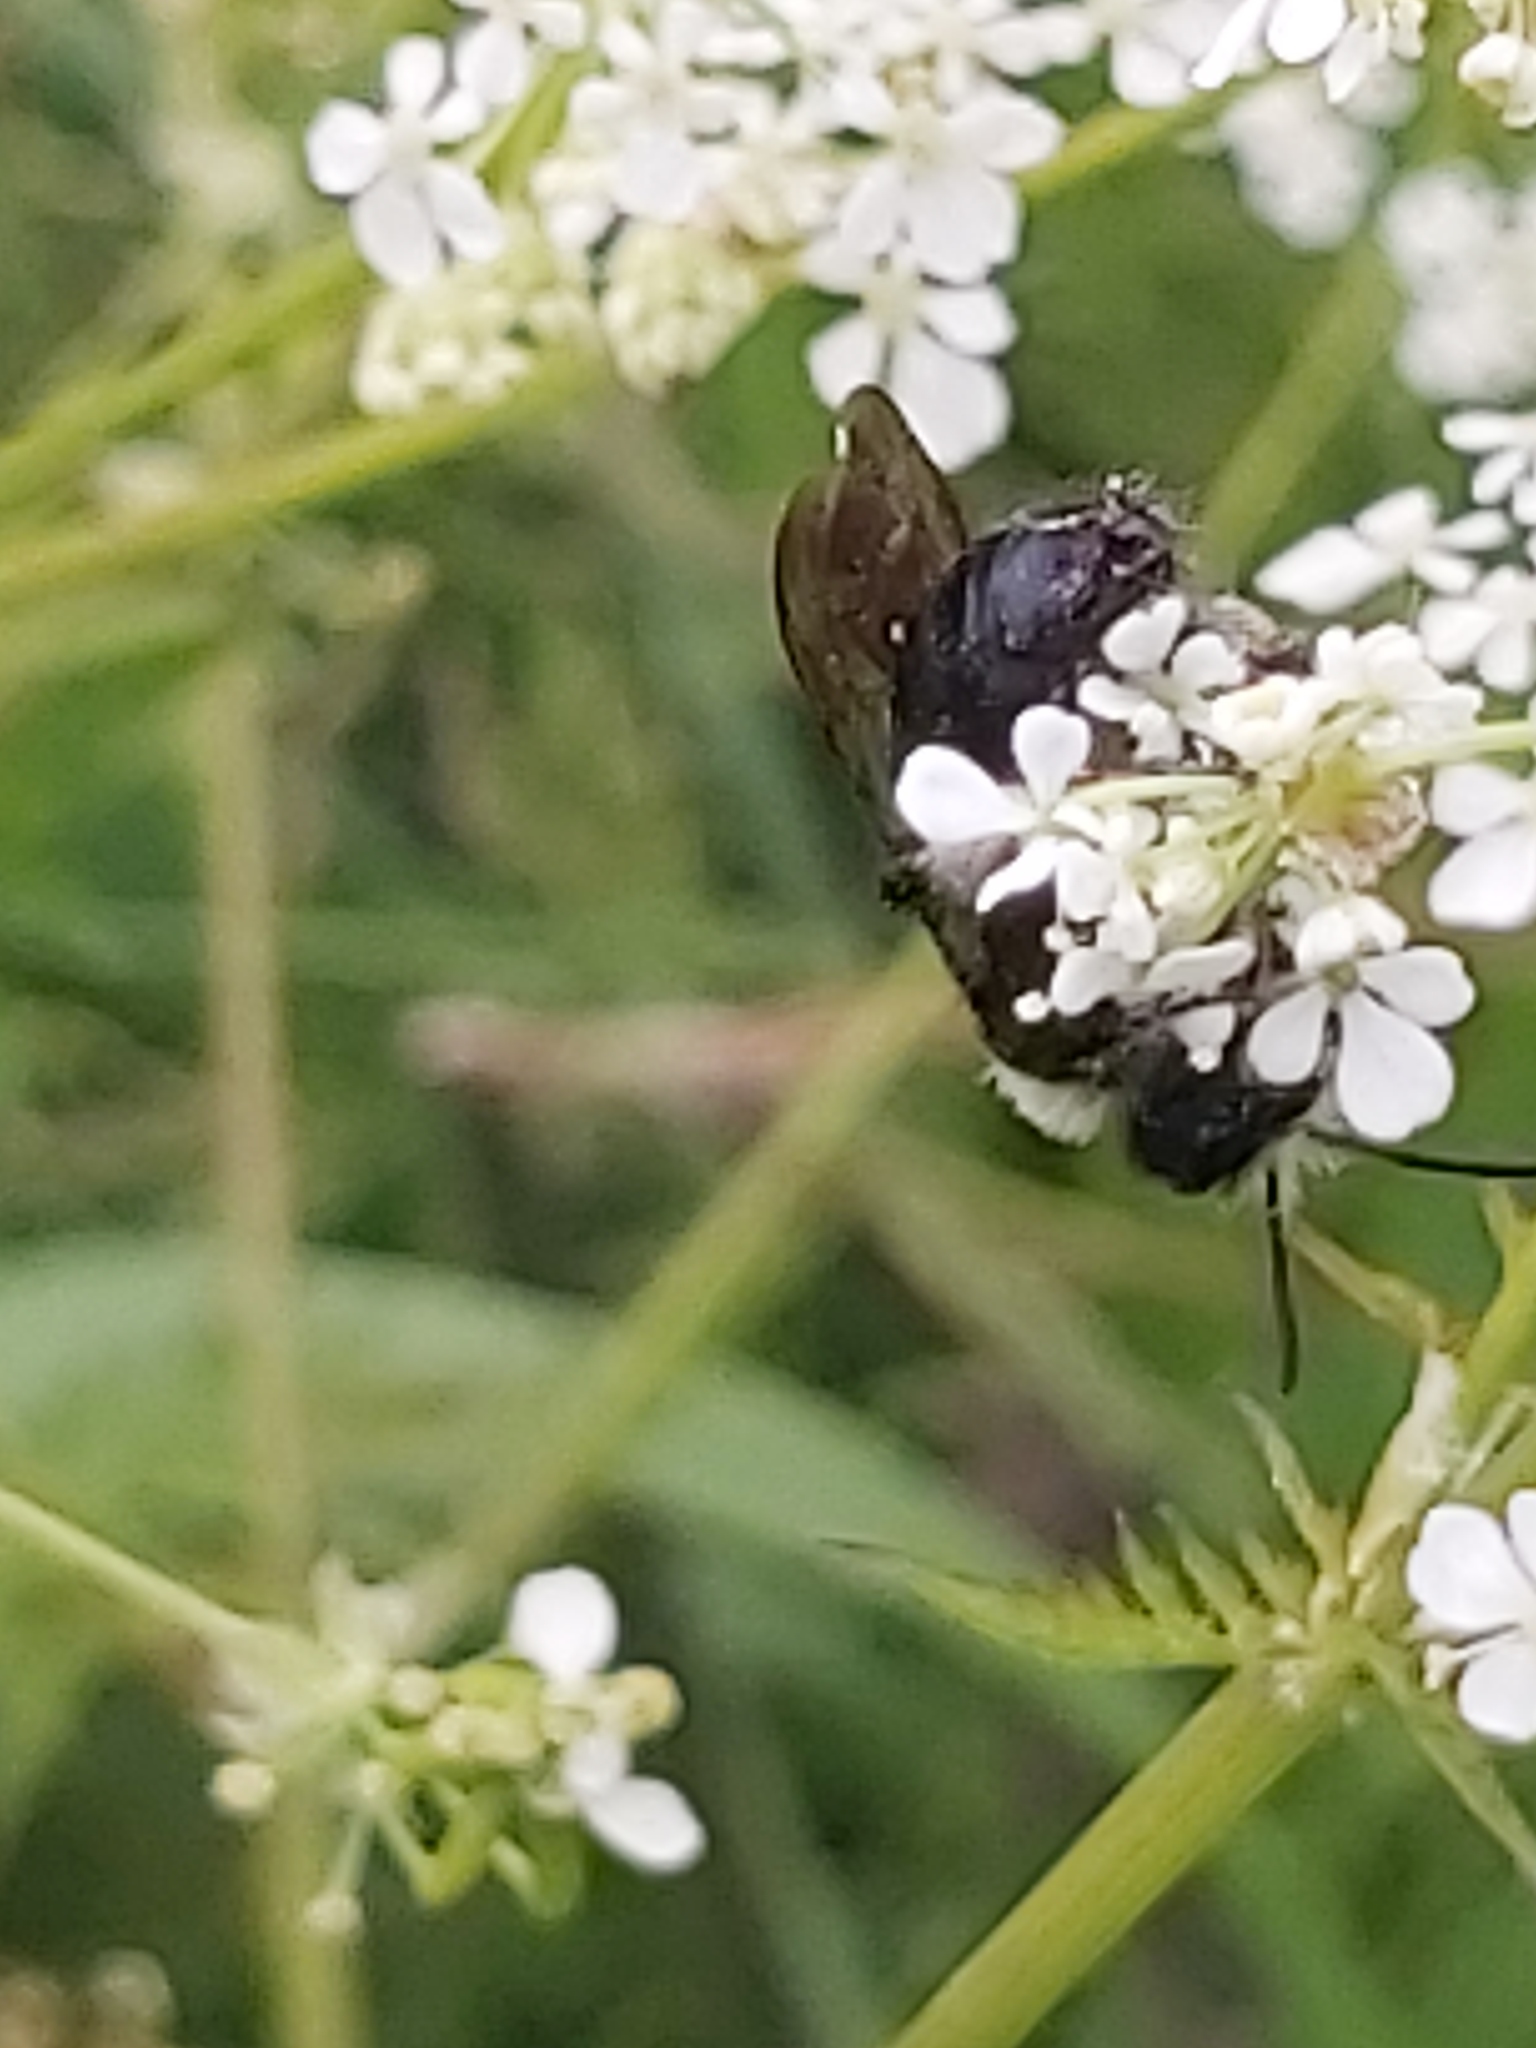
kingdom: Animalia
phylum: Arthropoda
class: Insecta
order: Hymenoptera
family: Andrenidae
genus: Andrena
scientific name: Andrena cineraria
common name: Ashy mining bee
